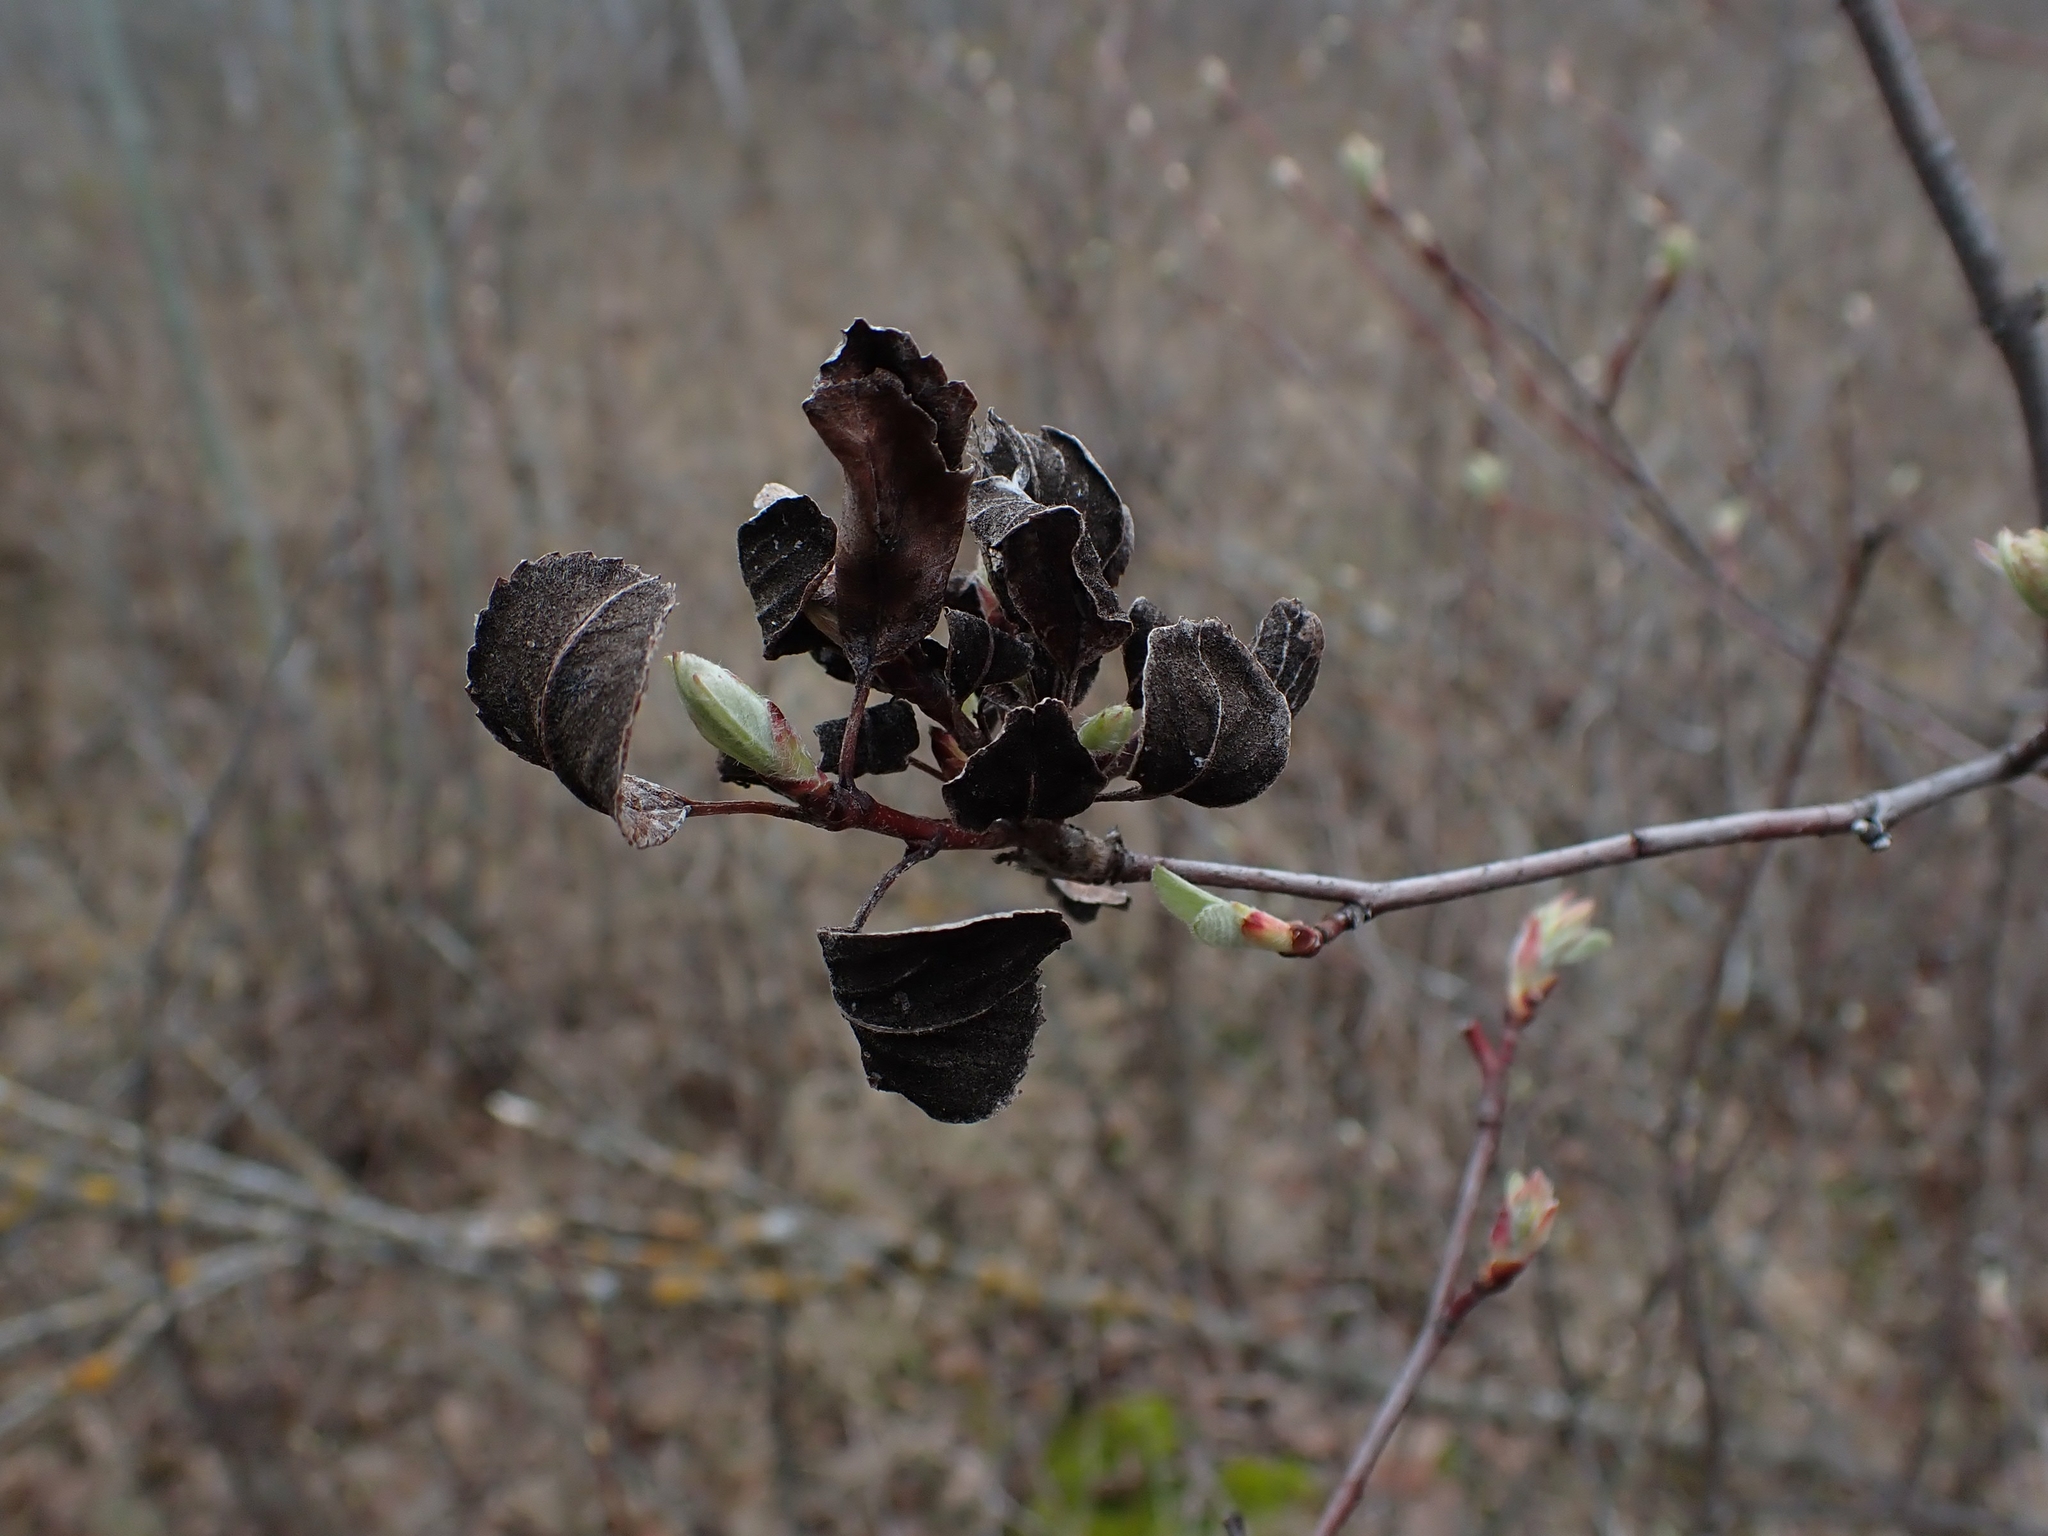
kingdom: Fungi
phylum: Ascomycota
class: Dothideomycetes
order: Venturiales
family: Venturiaceae
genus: Apiosporina
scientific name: Apiosporina collinsii
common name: Black leaf
